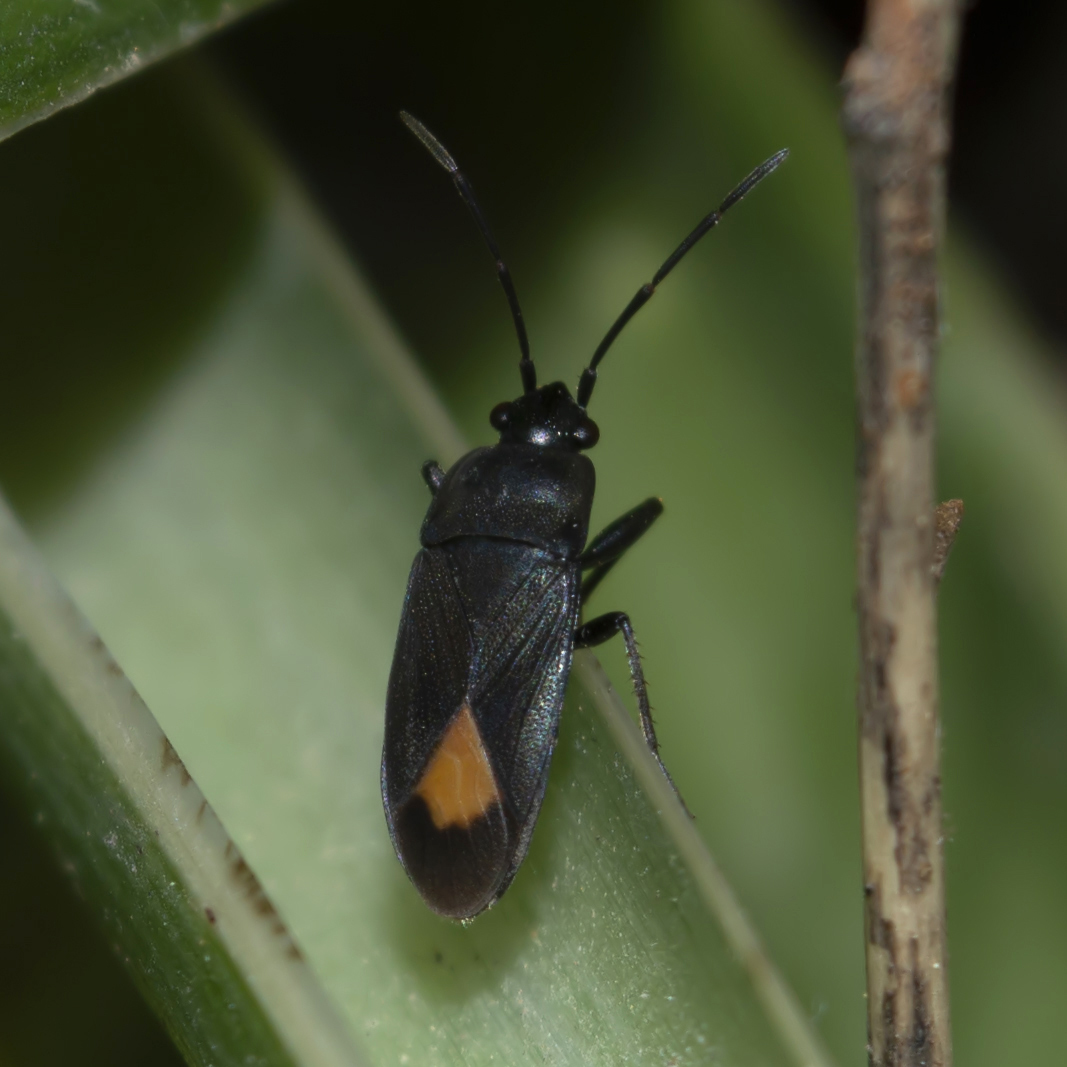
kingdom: Animalia
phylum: Arthropoda
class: Insecta
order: Hemiptera
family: Rhyparochromidae
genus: Aphanus
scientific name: Aphanus rolandri
